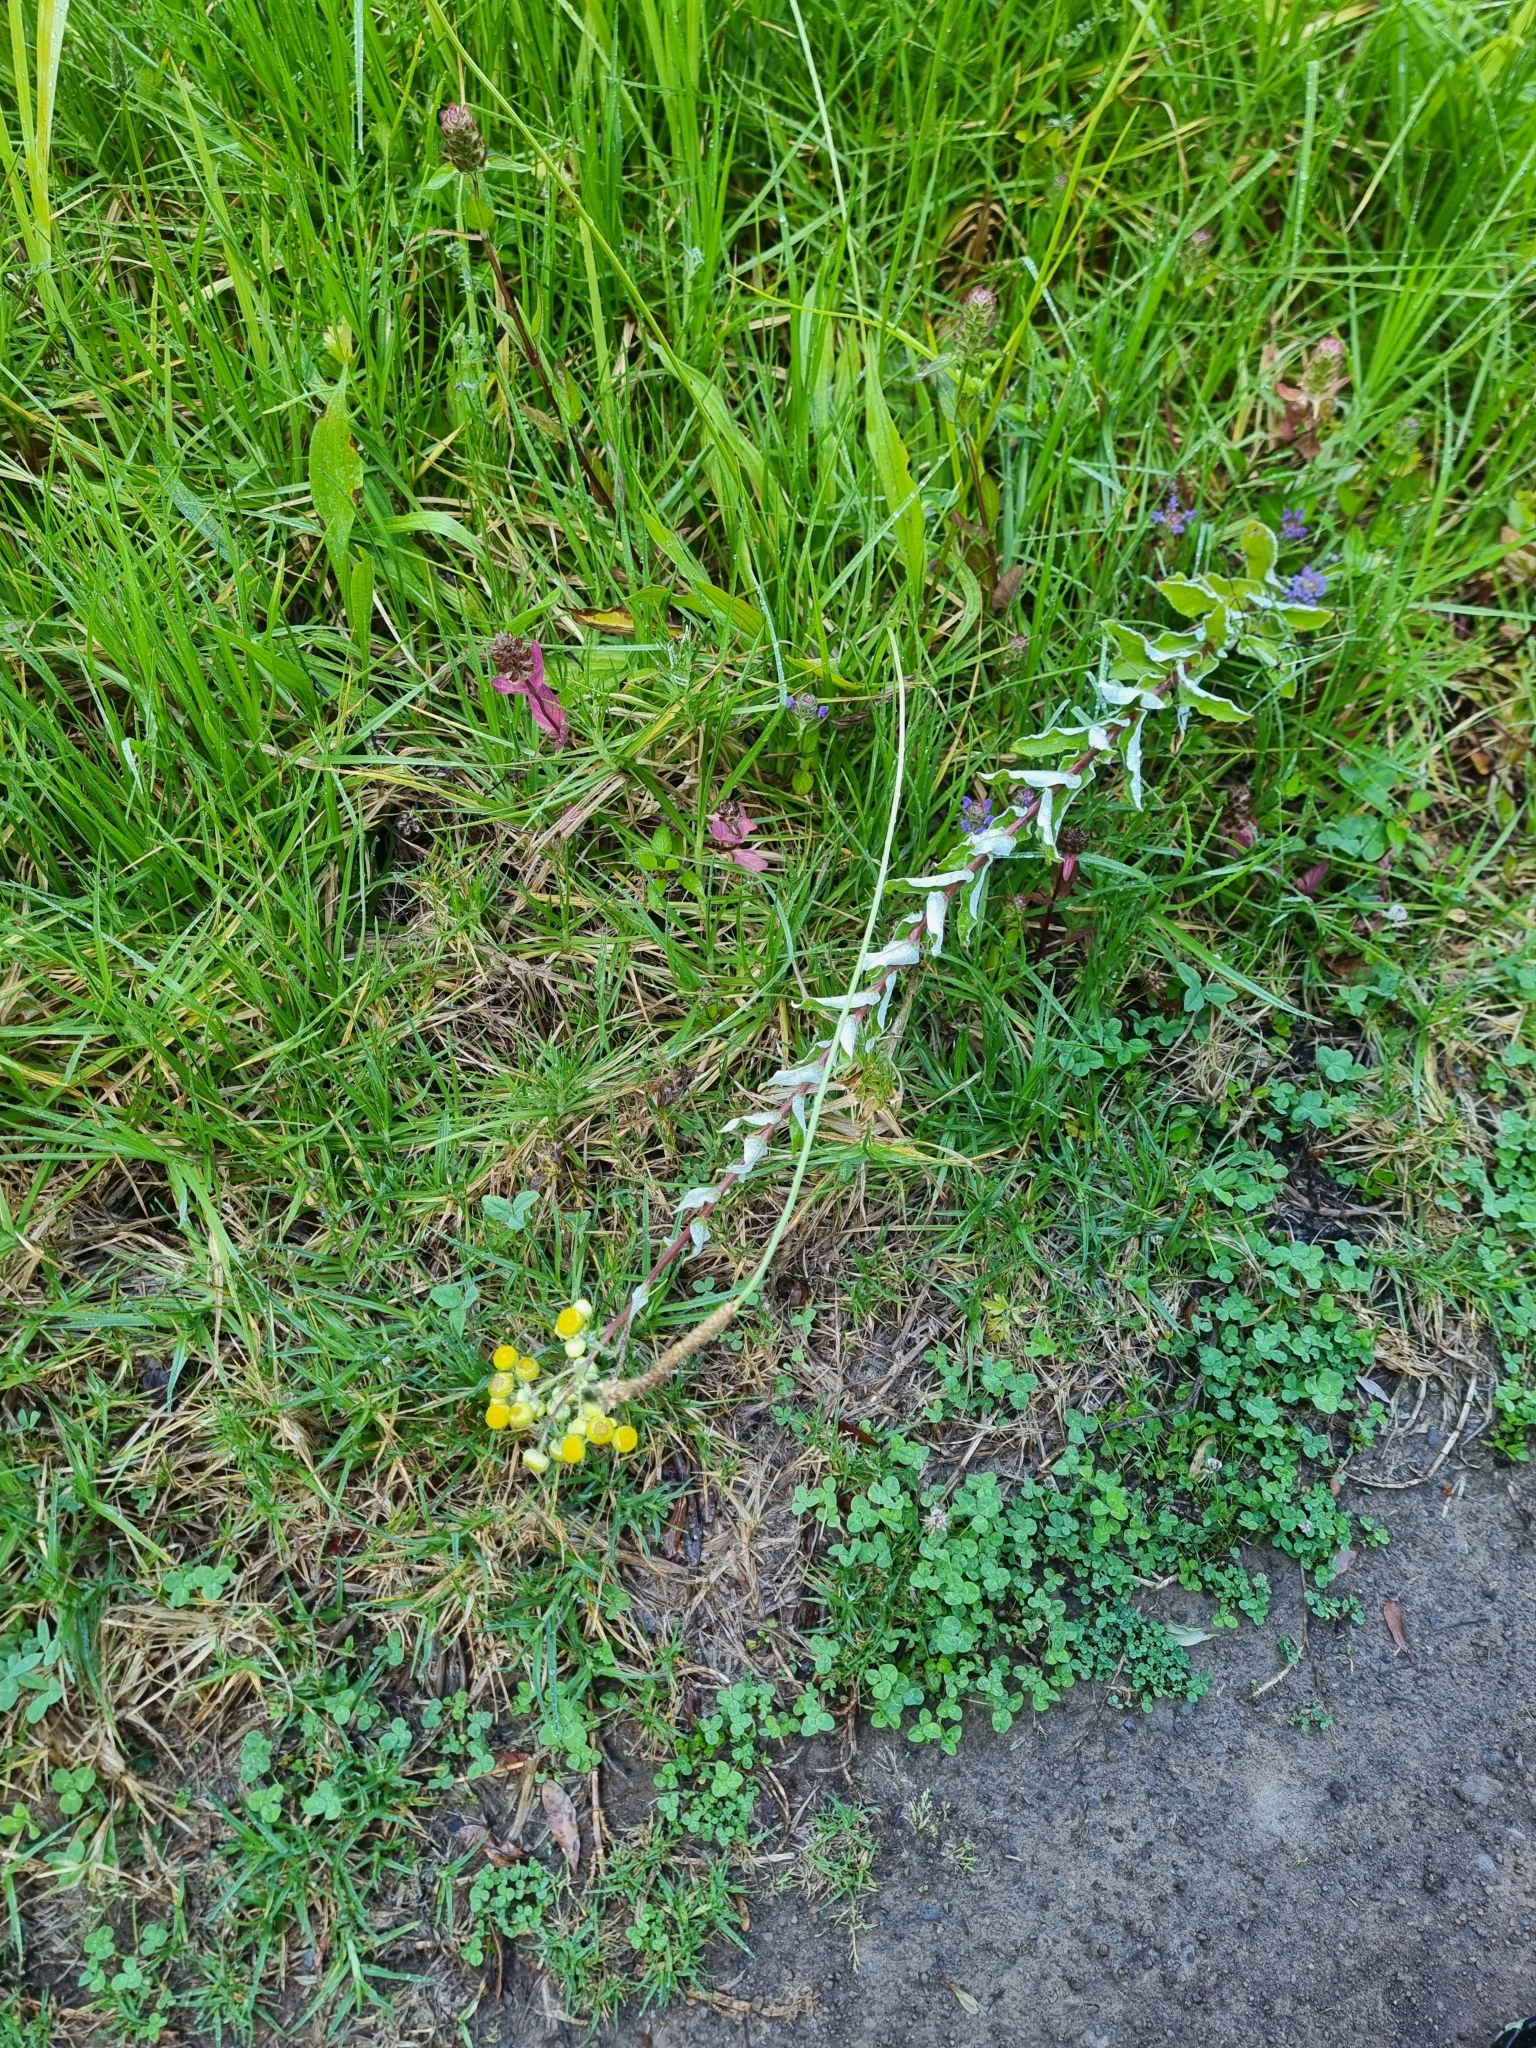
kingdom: Plantae
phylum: Tracheophyta
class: Magnoliopsida
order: Asterales
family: Asteraceae
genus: Helichrysum
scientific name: Helichrysum foetidum
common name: Stinking everlasting
